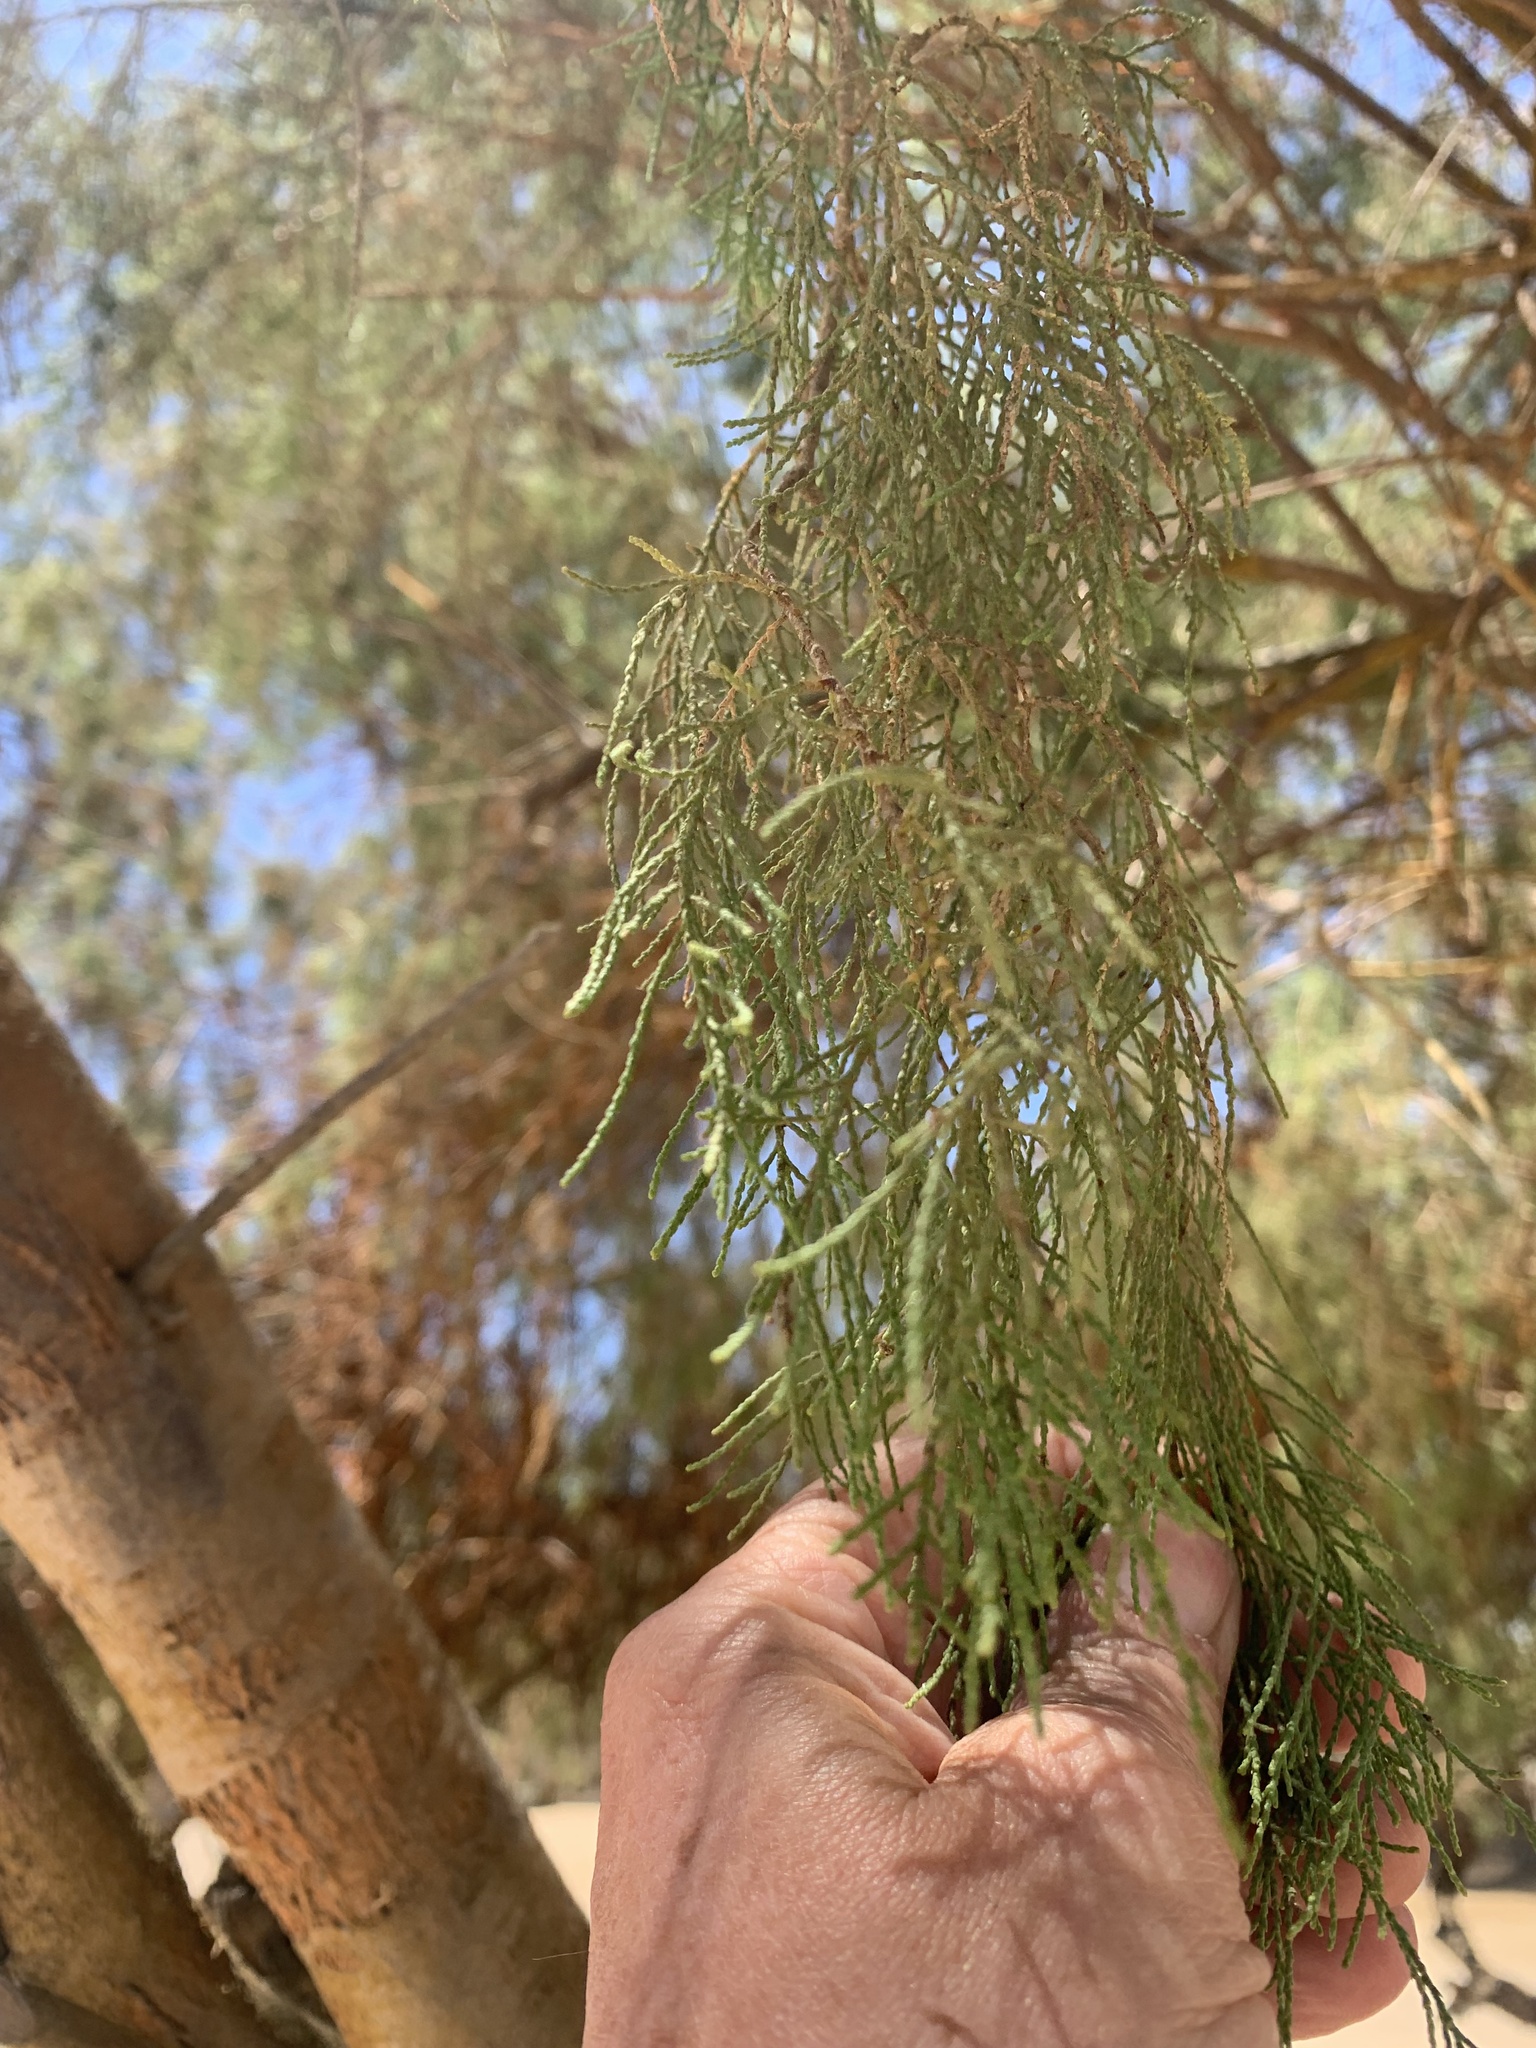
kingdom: Plantae
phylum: Tracheophyta
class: Magnoliopsida
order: Caryophyllales
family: Tamaricaceae
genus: Tamarix
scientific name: Tamarix usneoides
